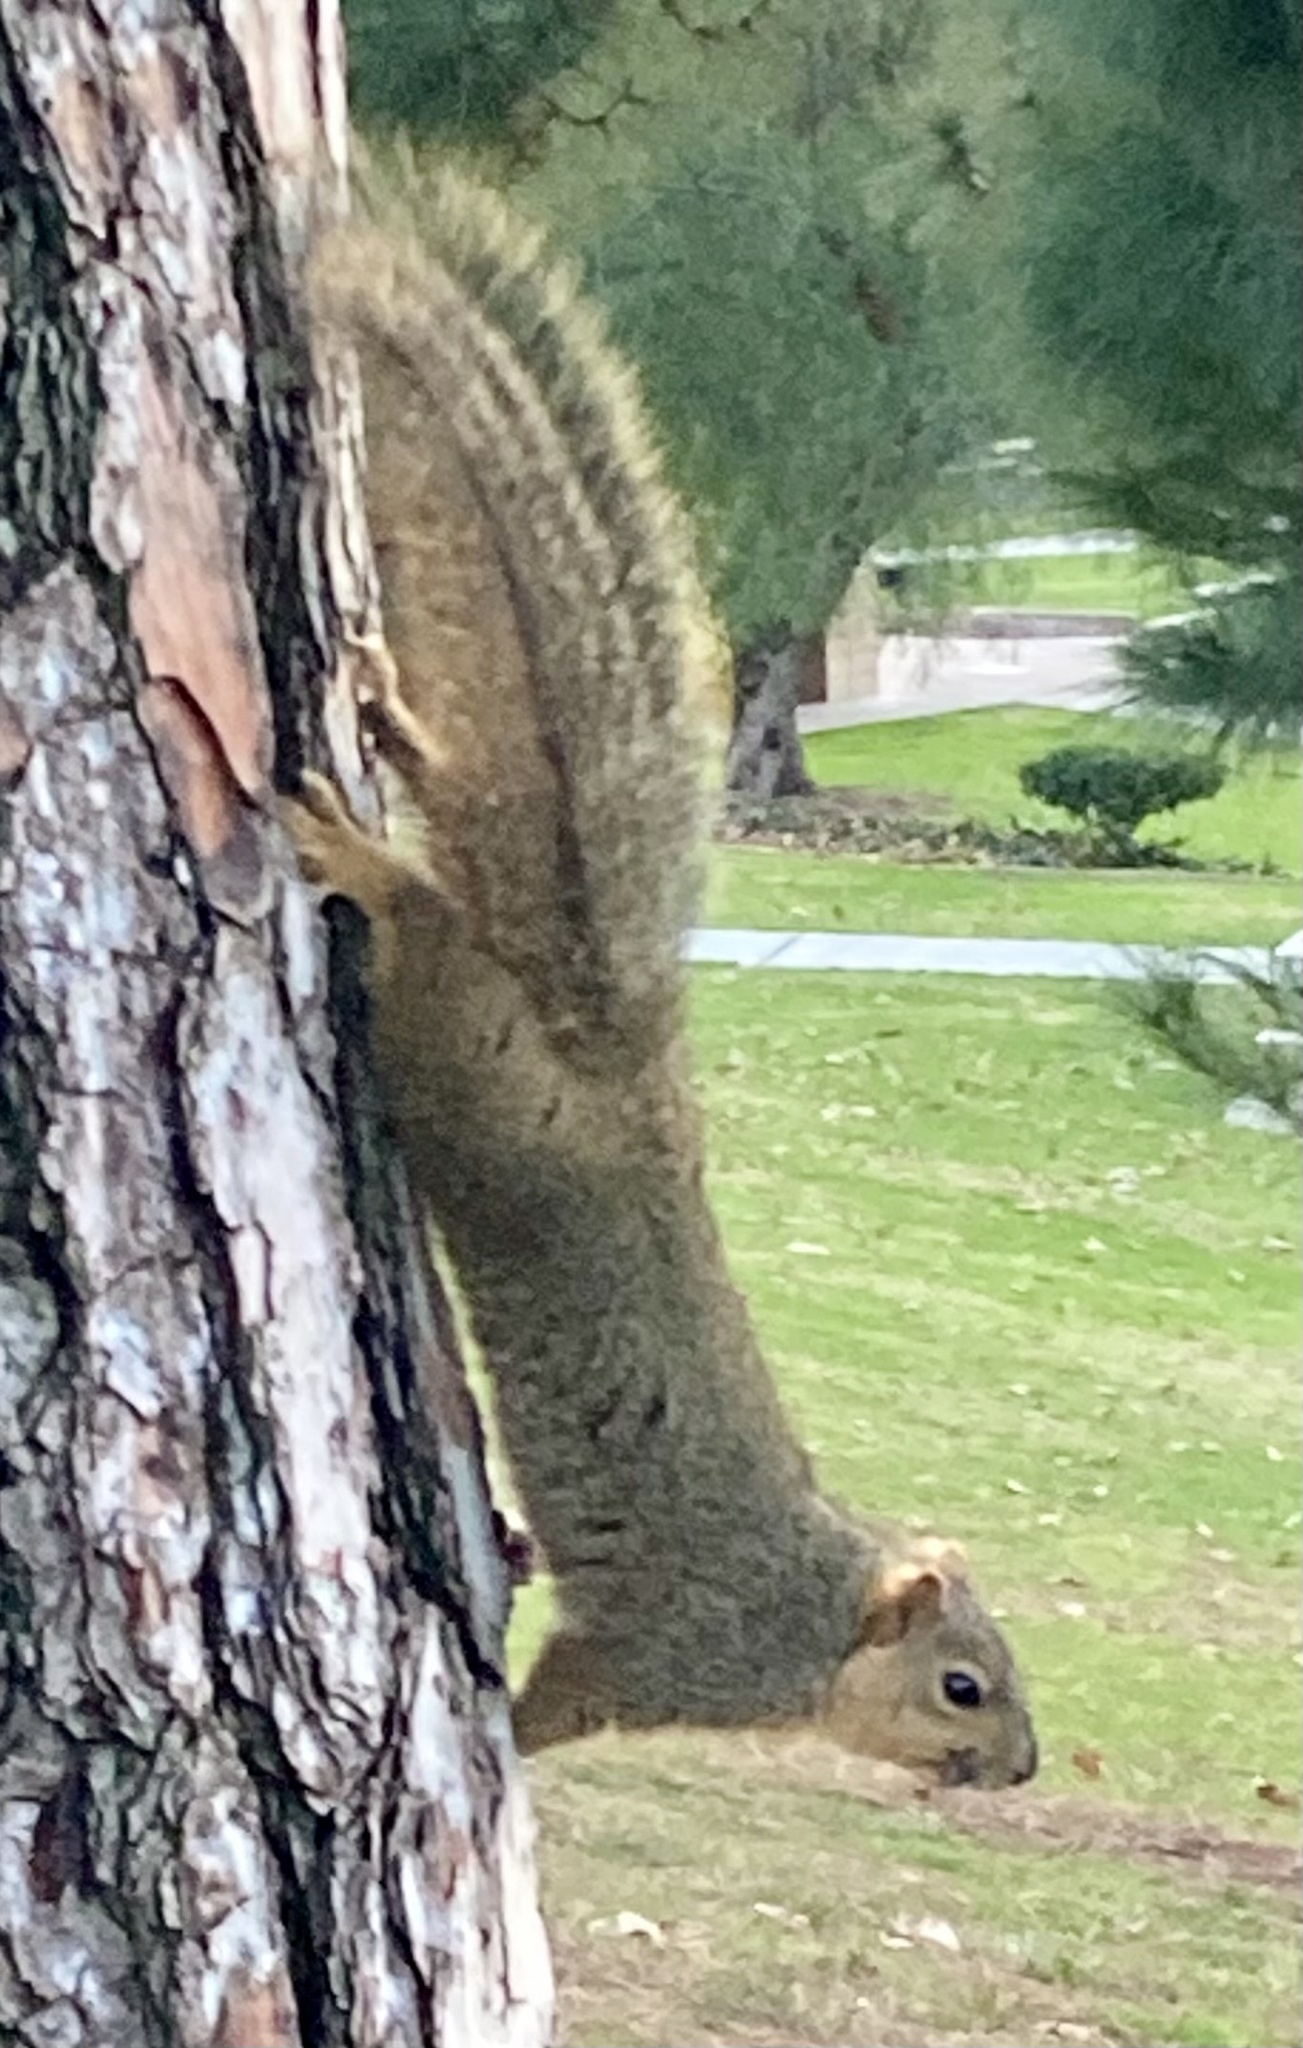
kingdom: Animalia
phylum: Chordata
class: Mammalia
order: Rodentia
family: Sciuridae
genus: Sciurus
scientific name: Sciurus niger
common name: Fox squirrel
